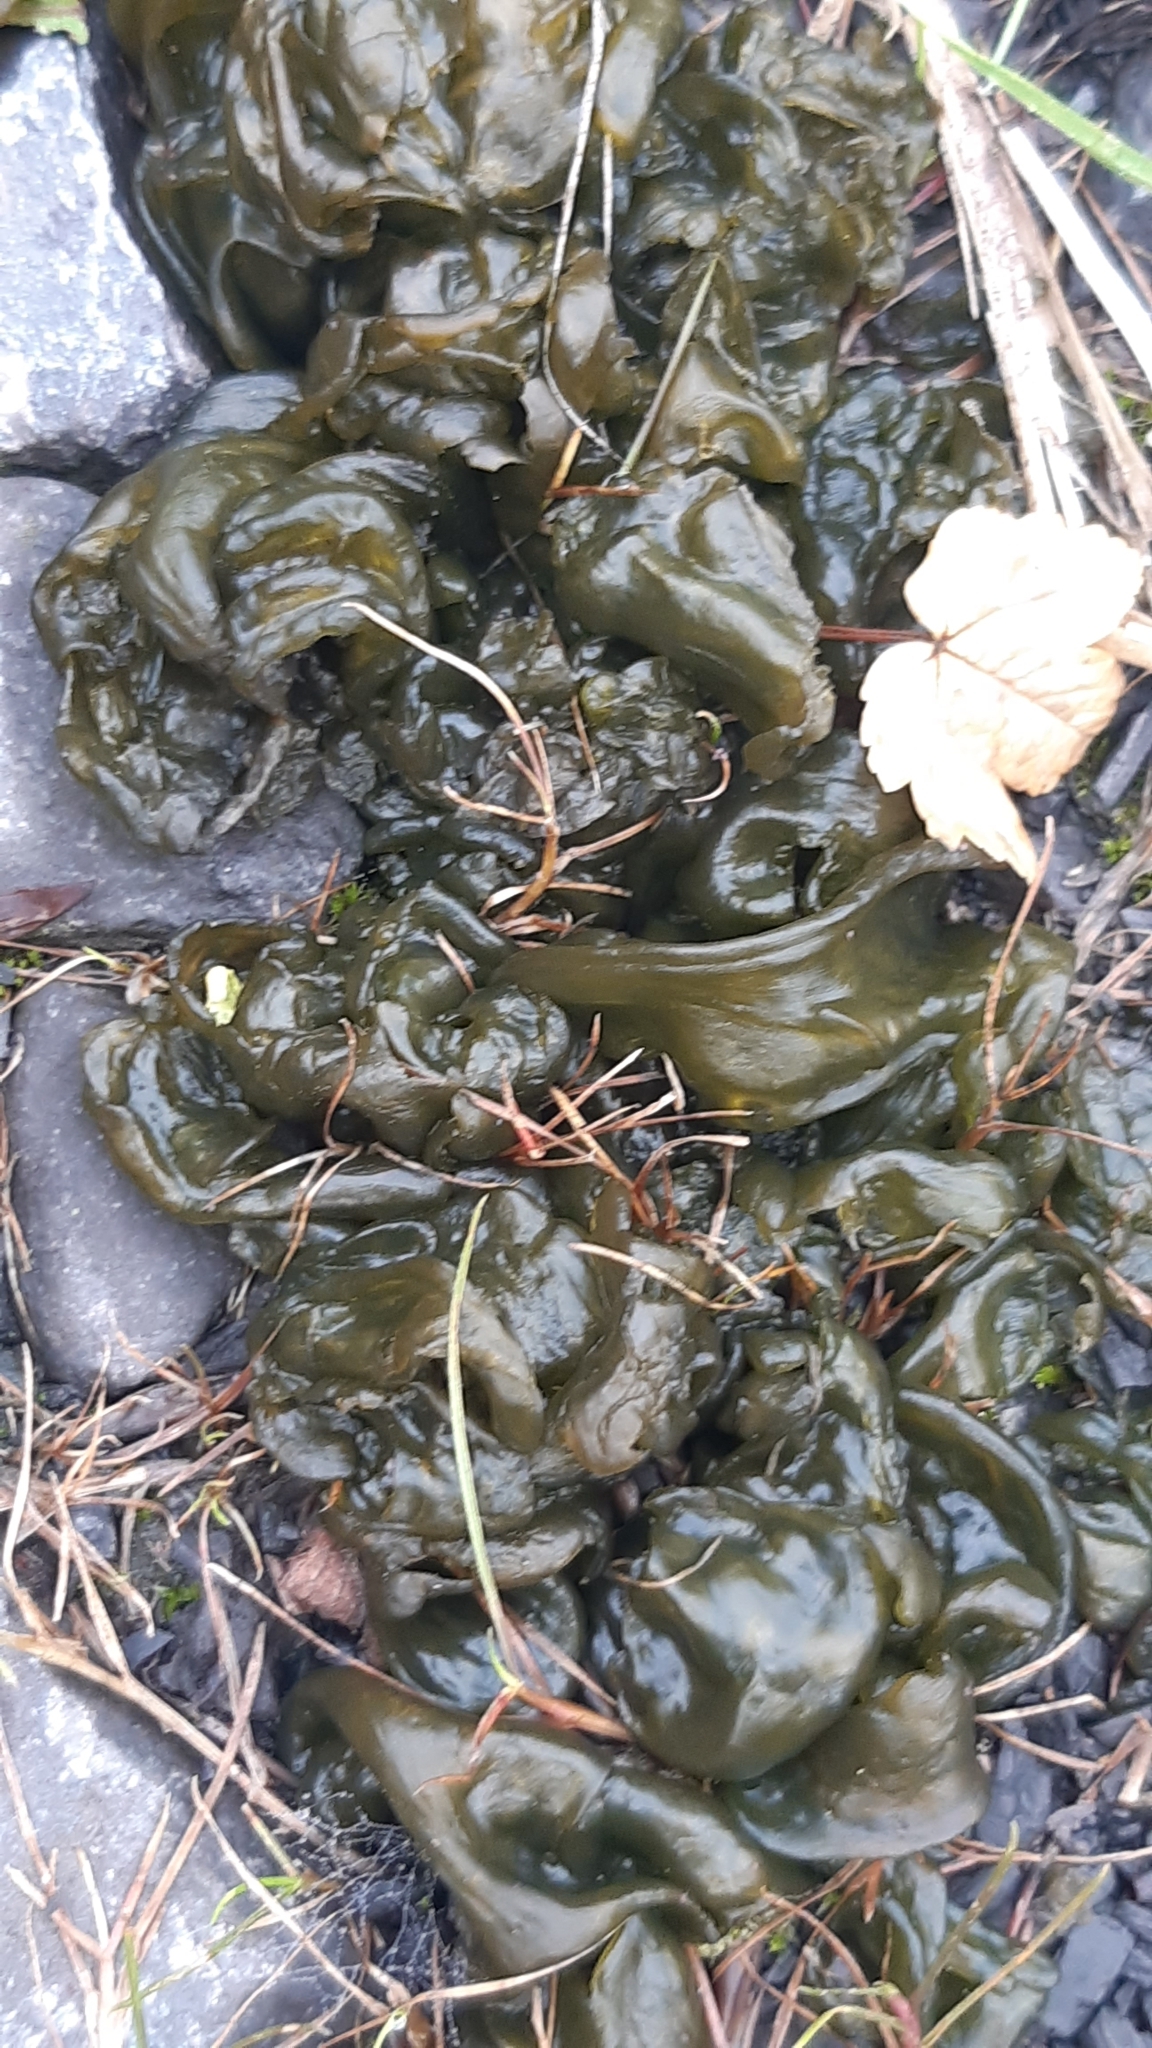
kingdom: Bacteria
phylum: Cyanobacteria
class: Cyanobacteriia
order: Cyanobacteriales
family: Nostocaceae
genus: Nostoc
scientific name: Nostoc commune
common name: Star jelly
